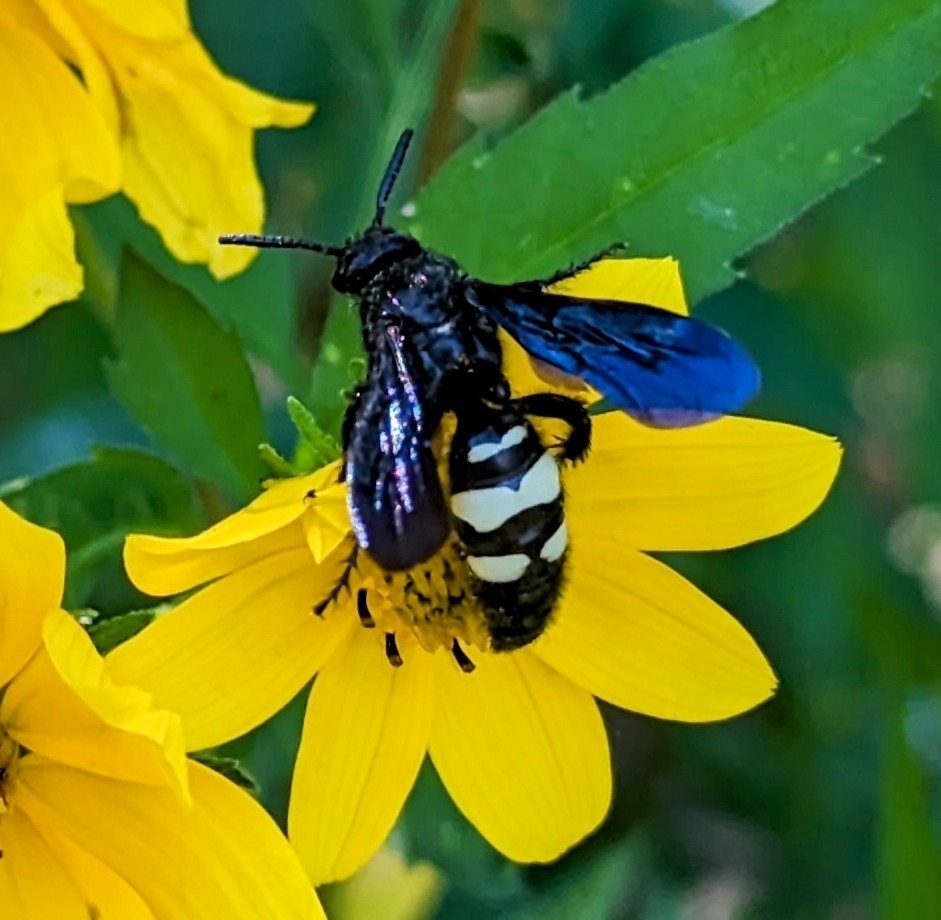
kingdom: Animalia
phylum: Arthropoda
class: Insecta
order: Hymenoptera
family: Scoliidae
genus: Scolia
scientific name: Scolia bicincta
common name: Double-banded scoliid wasp
